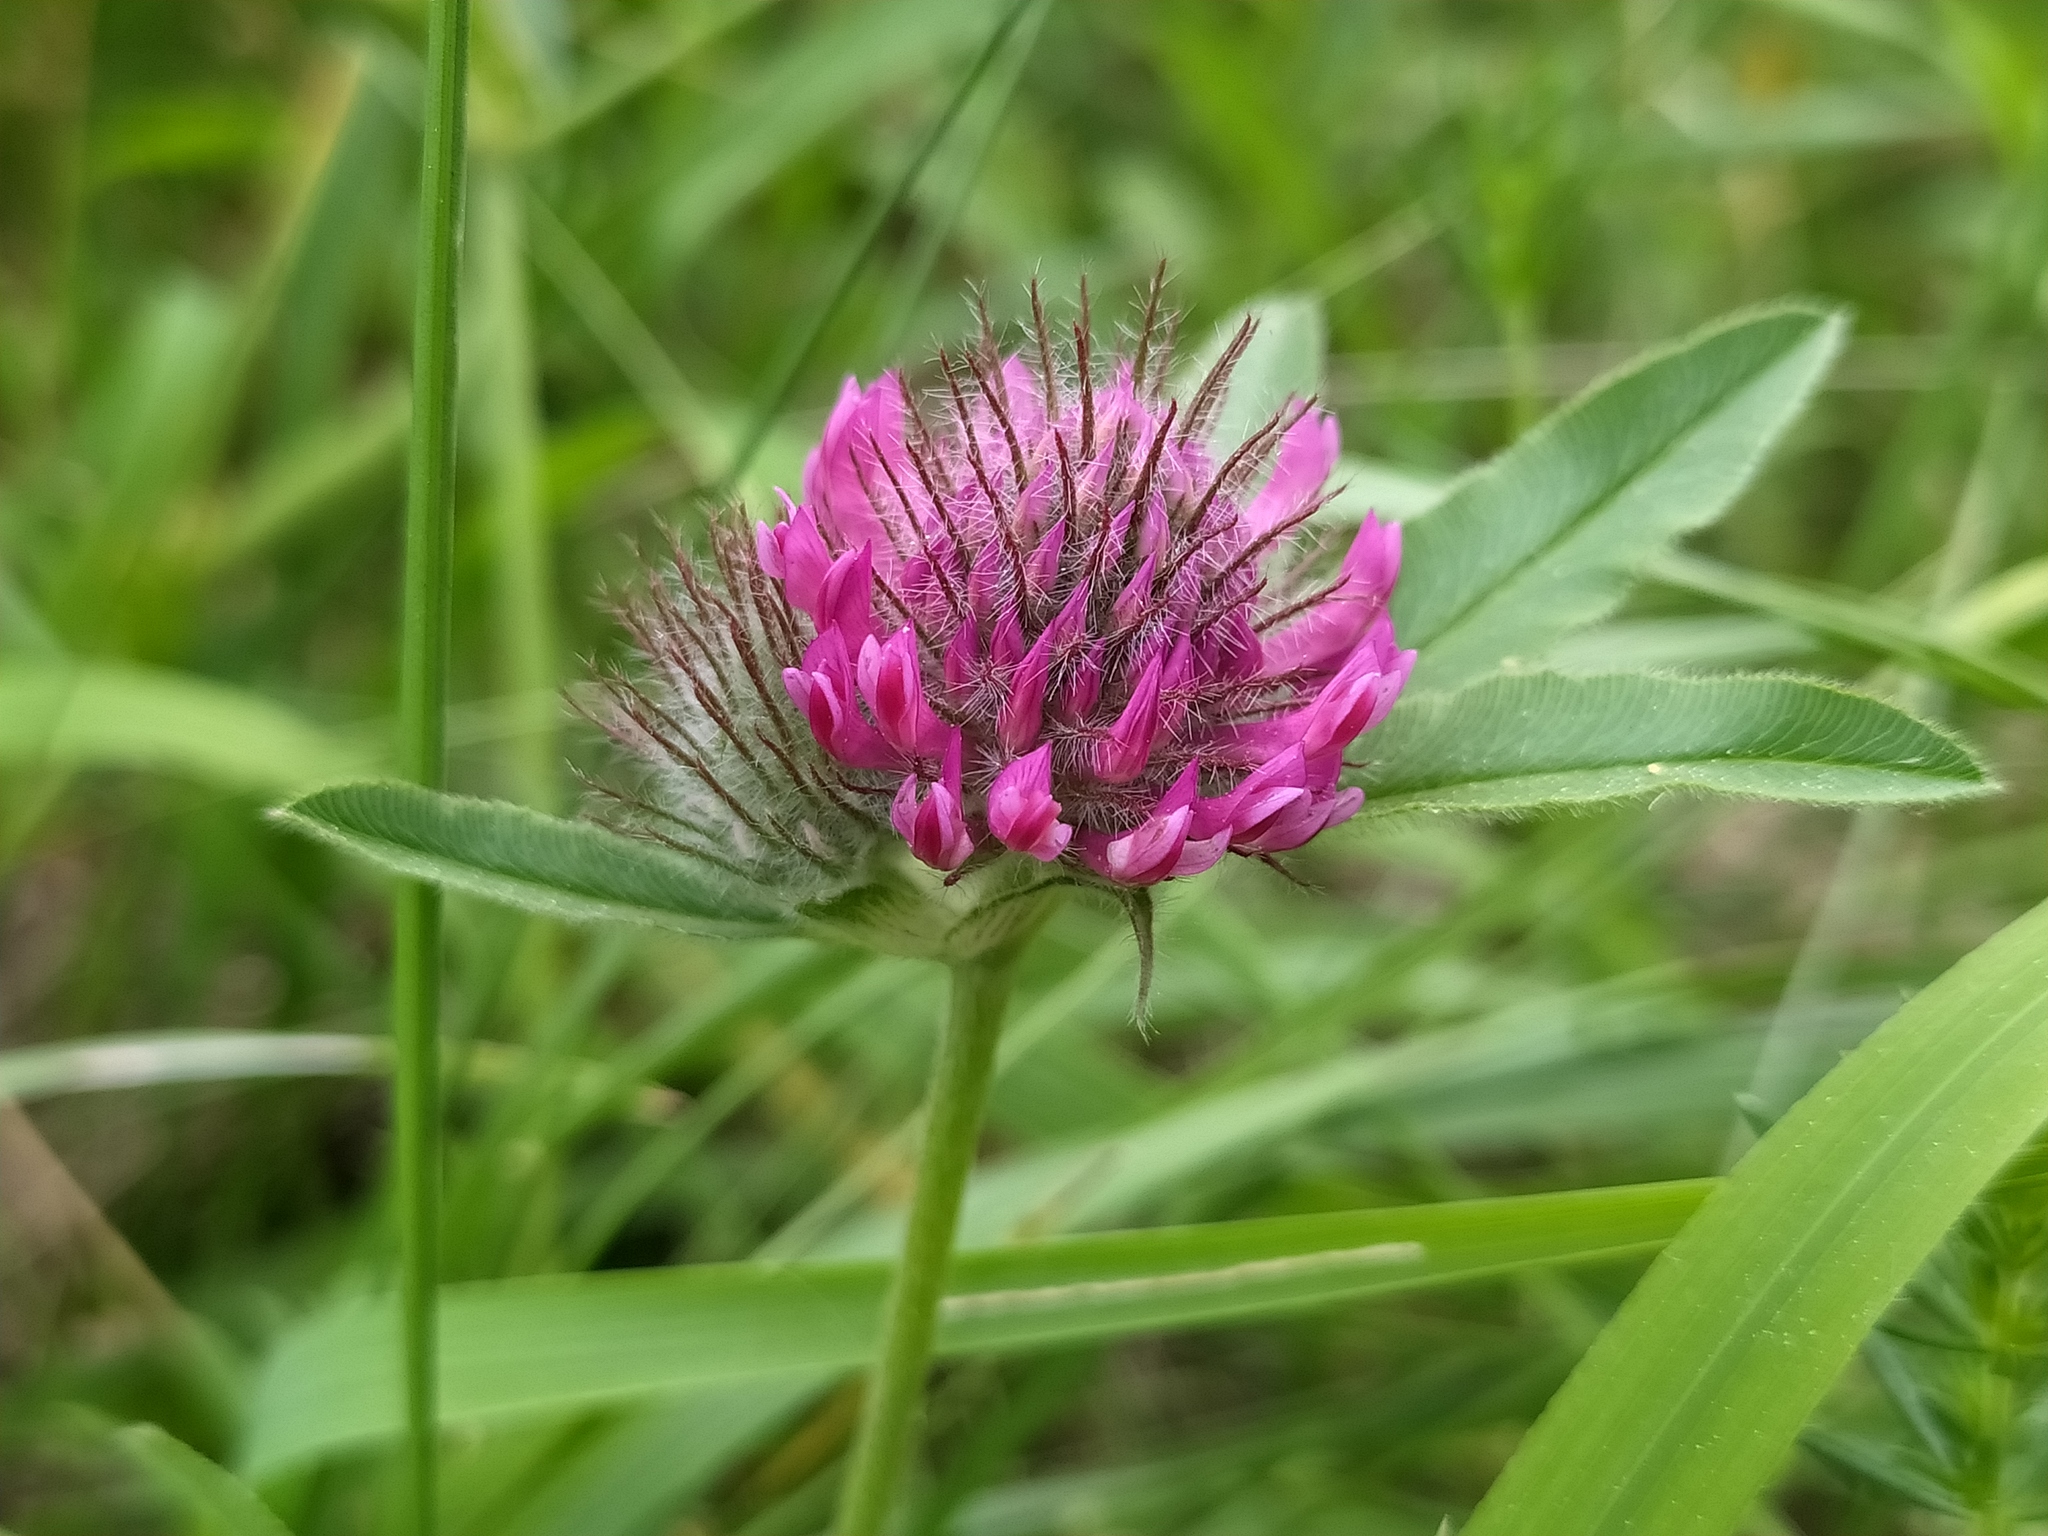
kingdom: Plantae
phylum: Tracheophyta
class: Magnoliopsida
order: Fabales
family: Fabaceae
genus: Trifolium
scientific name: Trifolium alpestre
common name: Owl-head clover
